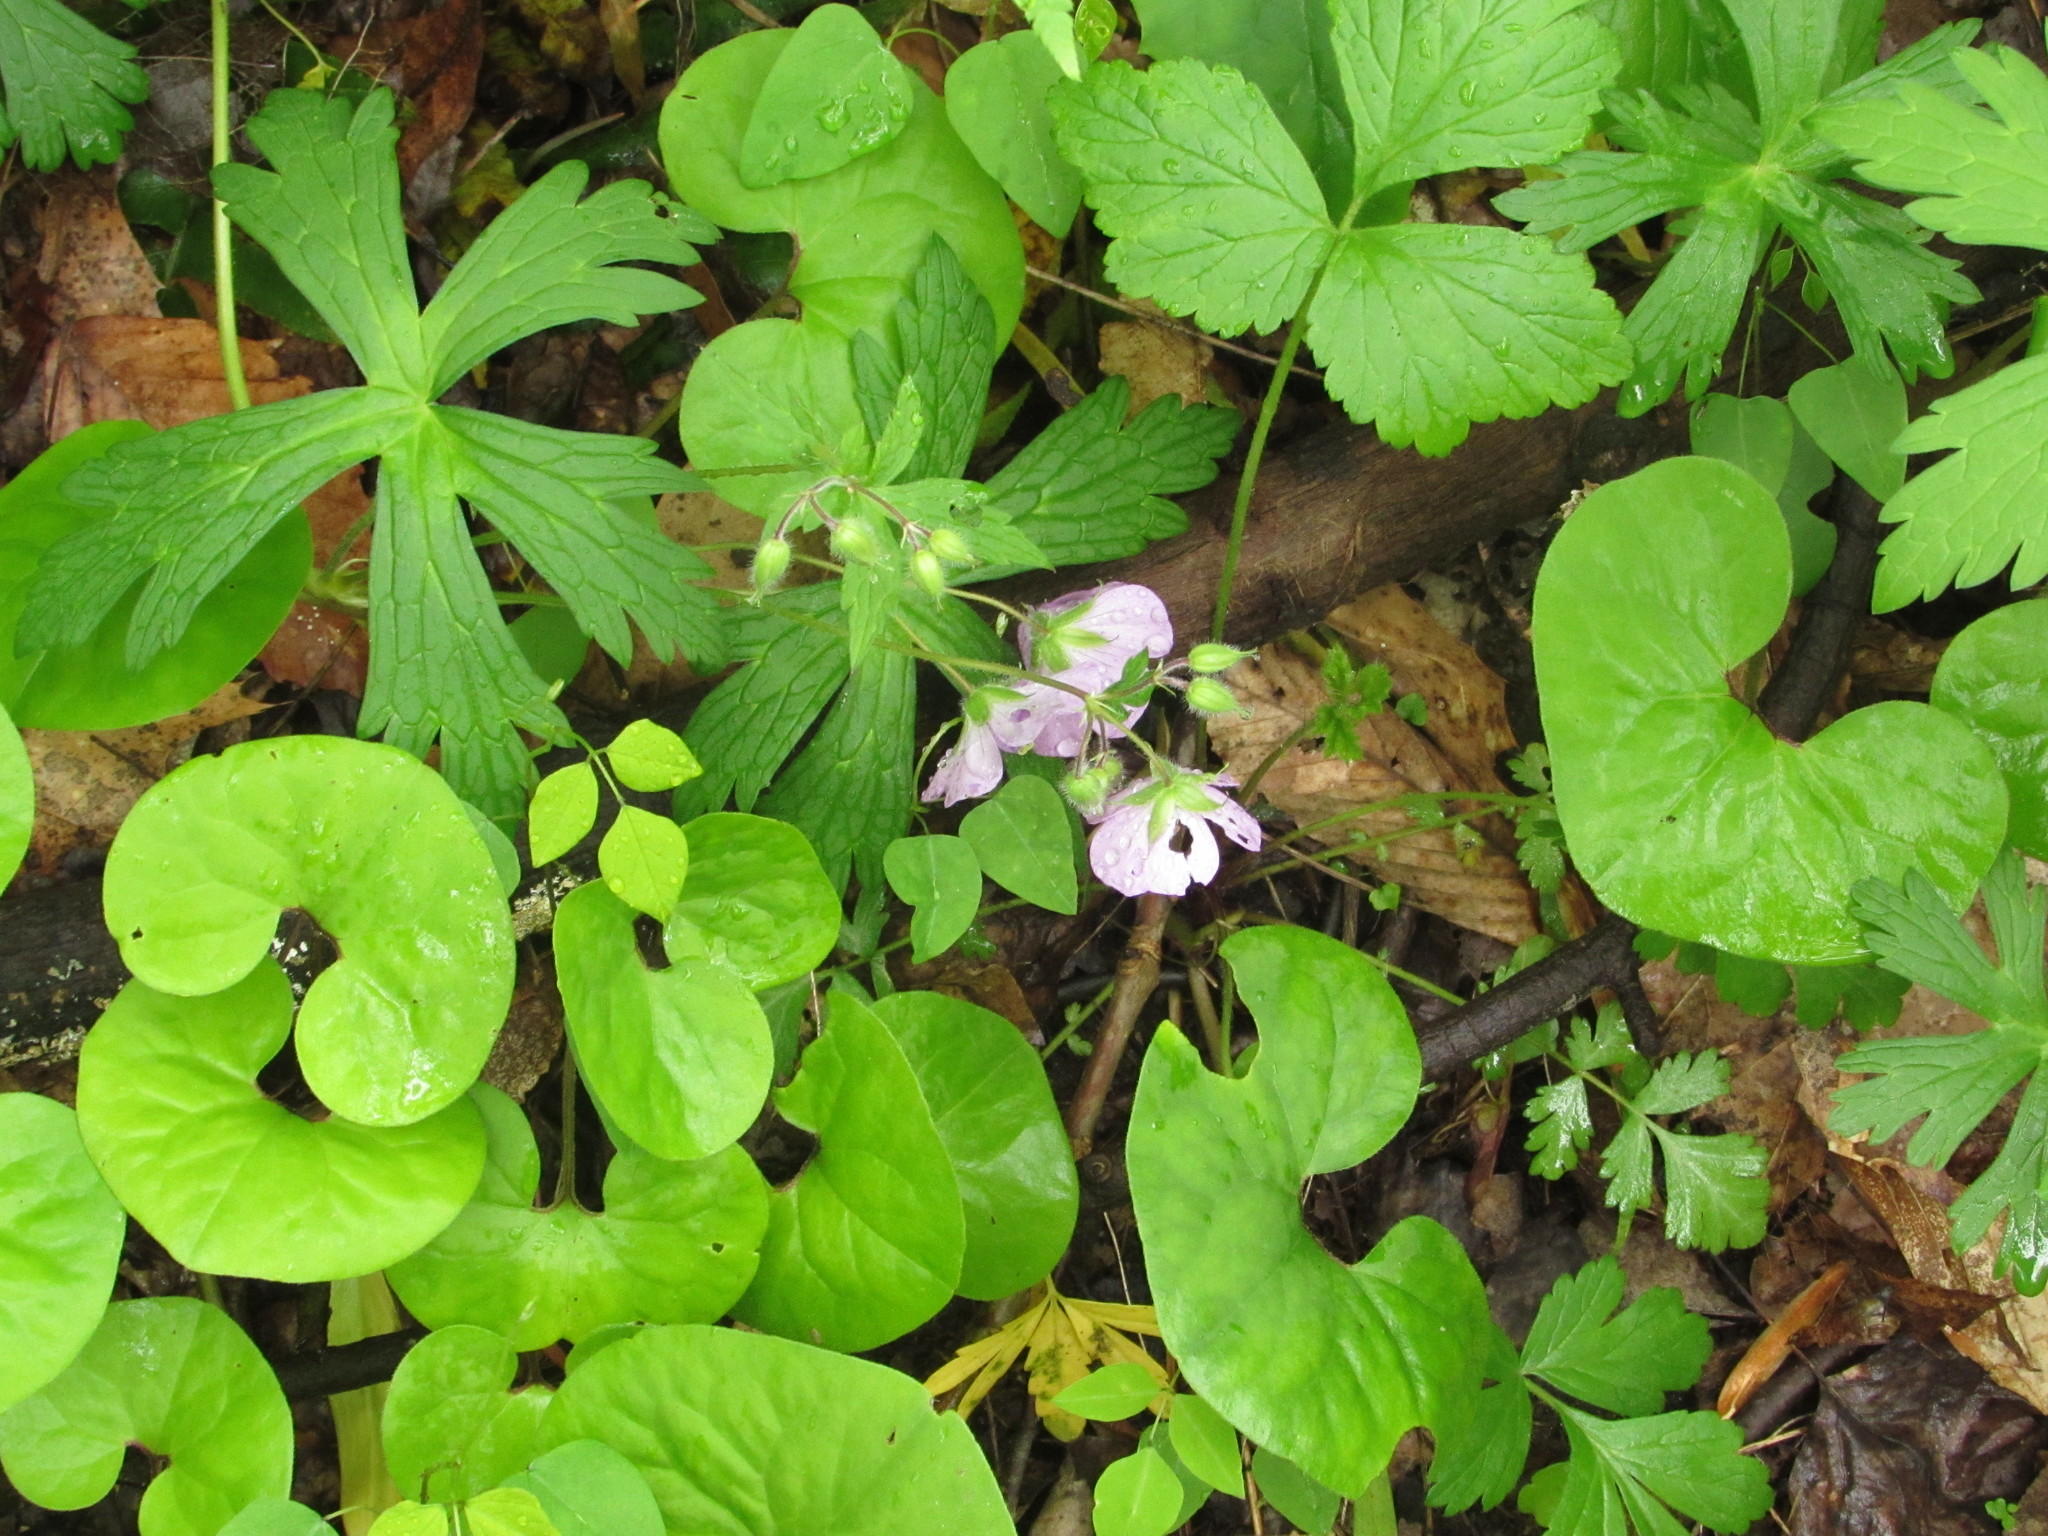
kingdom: Plantae
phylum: Tracheophyta
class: Magnoliopsida
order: Geraniales
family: Geraniaceae
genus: Geranium
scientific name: Geranium maculatum
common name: Spotted geranium
